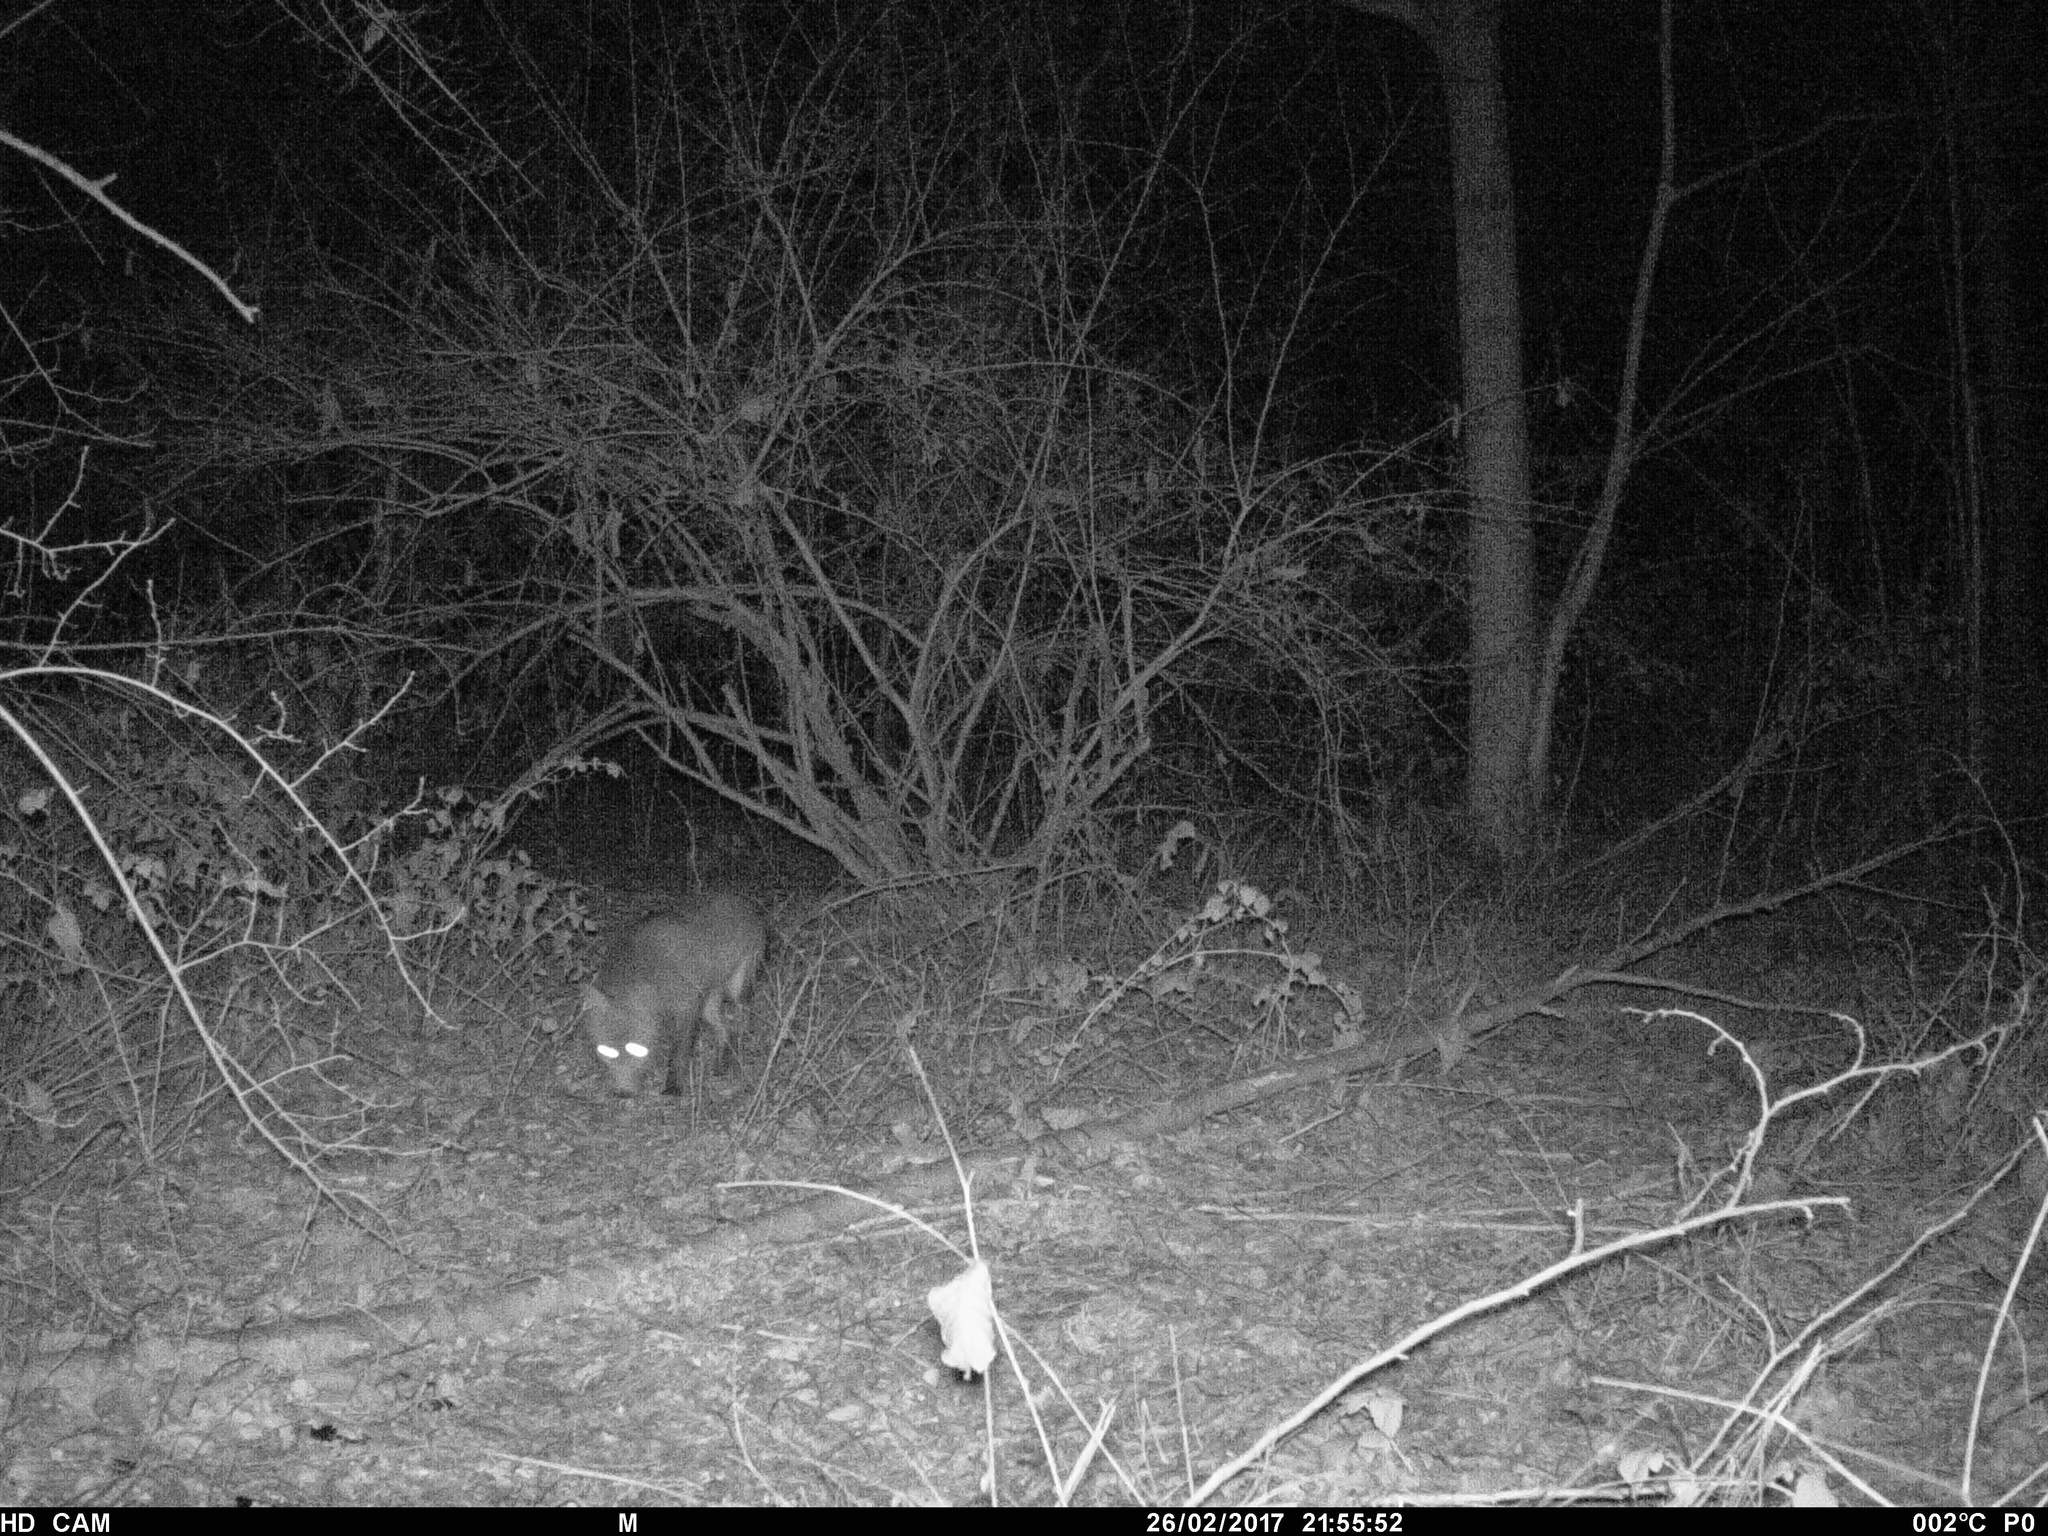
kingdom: Animalia
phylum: Chordata
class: Mammalia
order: Carnivora
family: Canidae
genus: Vulpes
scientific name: Vulpes vulpes
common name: Red fox
